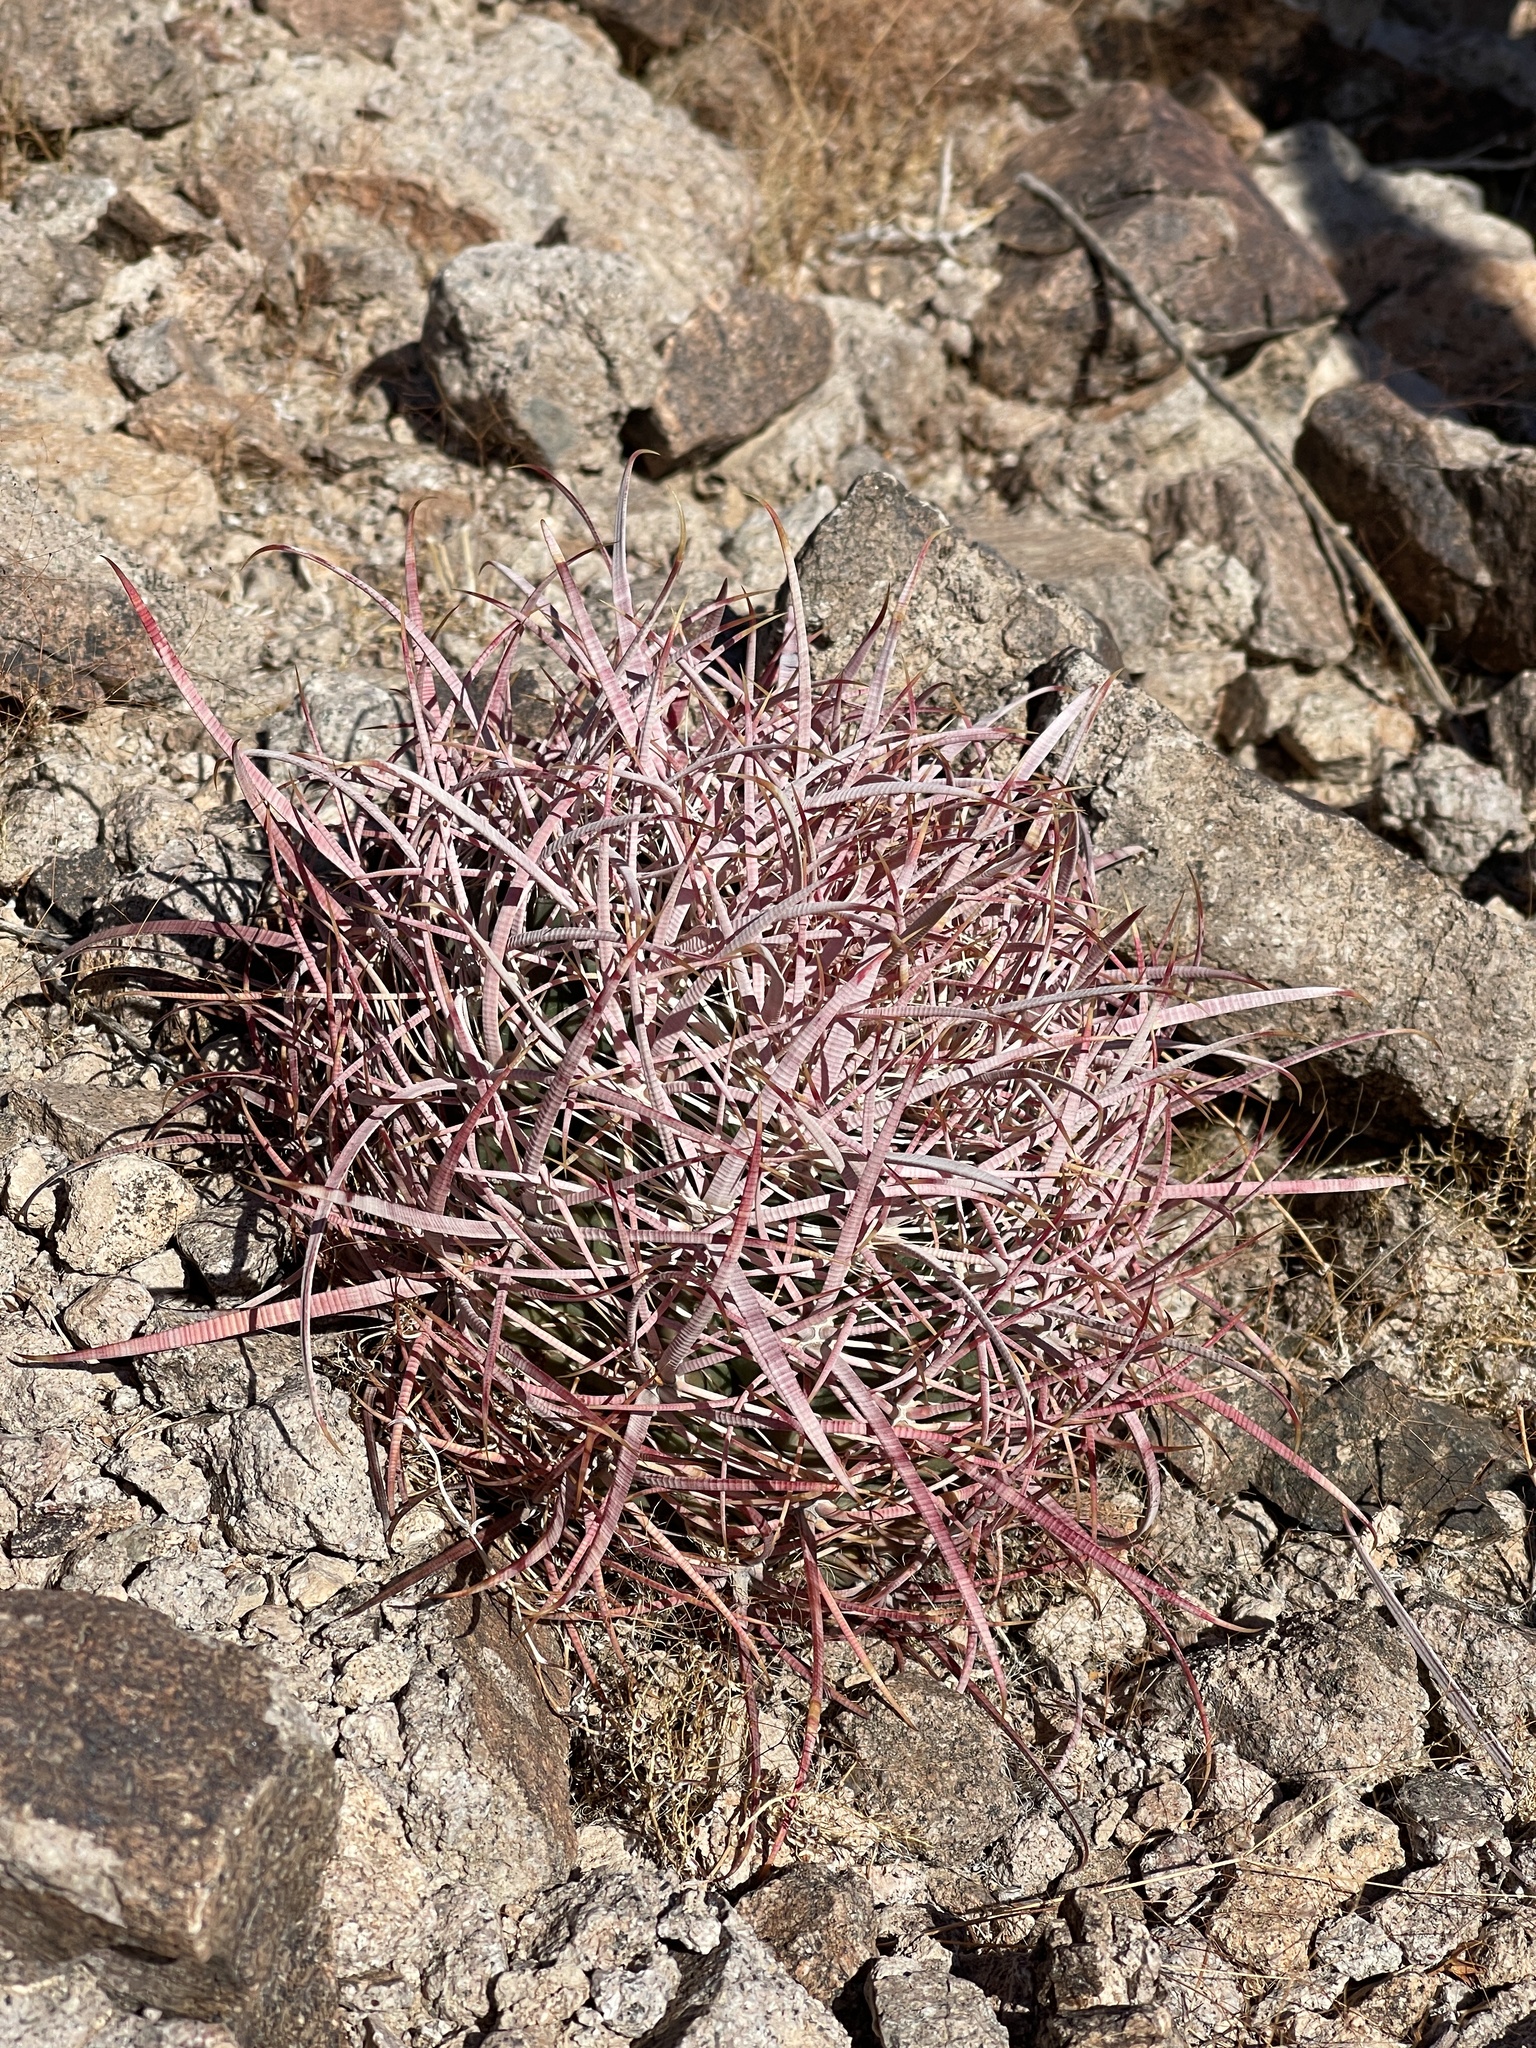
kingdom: Plantae
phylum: Tracheophyta
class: Magnoliopsida
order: Caryophyllales
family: Cactaceae
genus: Ferocactus
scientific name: Ferocactus cylindraceus
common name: California barrel cactus
